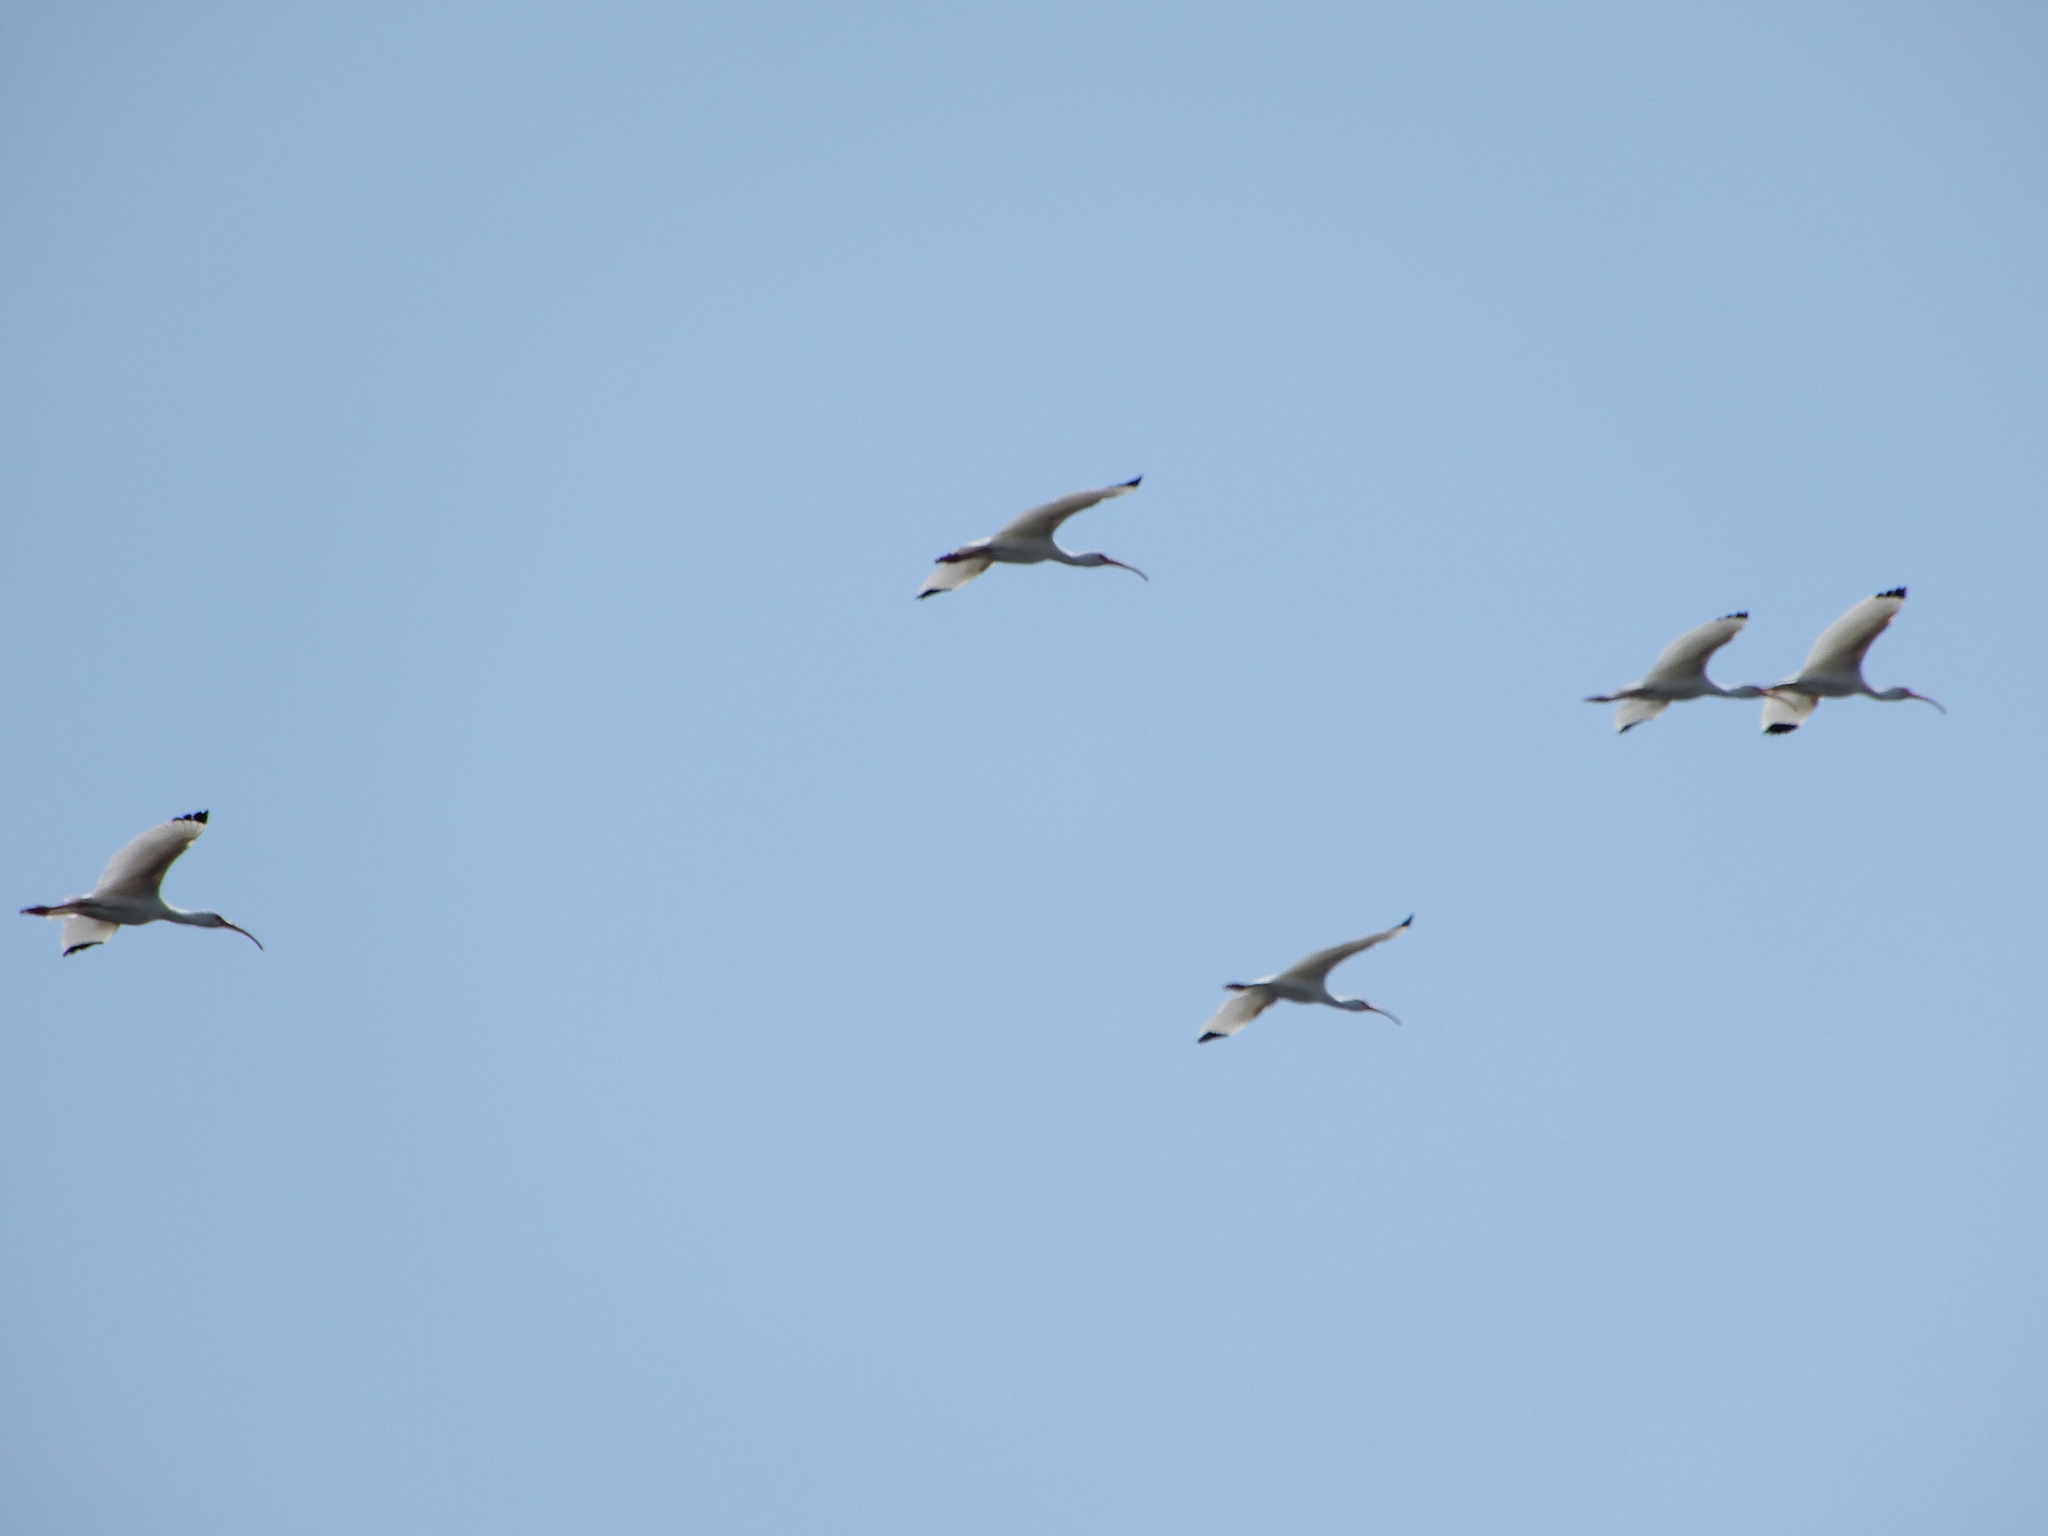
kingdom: Animalia
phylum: Chordata
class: Aves
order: Pelecaniformes
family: Threskiornithidae
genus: Eudocimus
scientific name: Eudocimus albus
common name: White ibis
